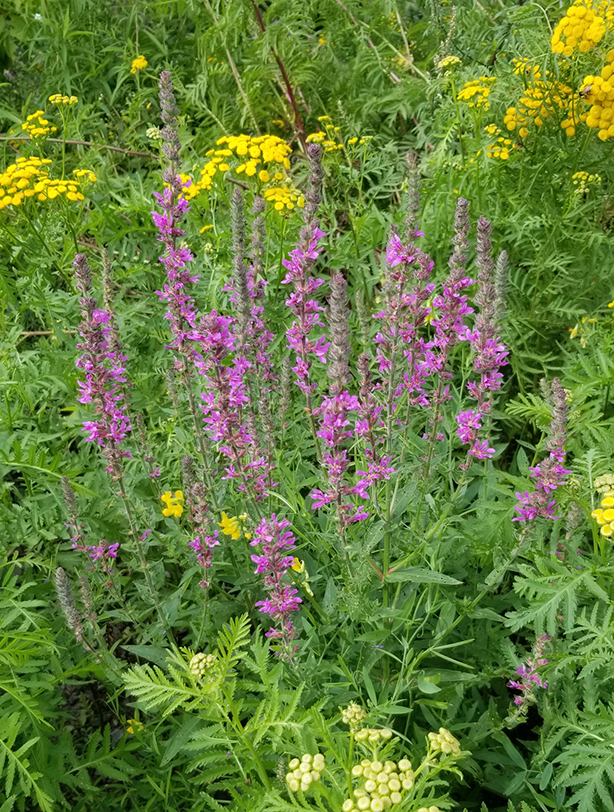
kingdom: Plantae
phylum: Tracheophyta
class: Magnoliopsida
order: Myrtales
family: Lythraceae
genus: Lythrum
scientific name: Lythrum salicaria
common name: Purple loosestrife
